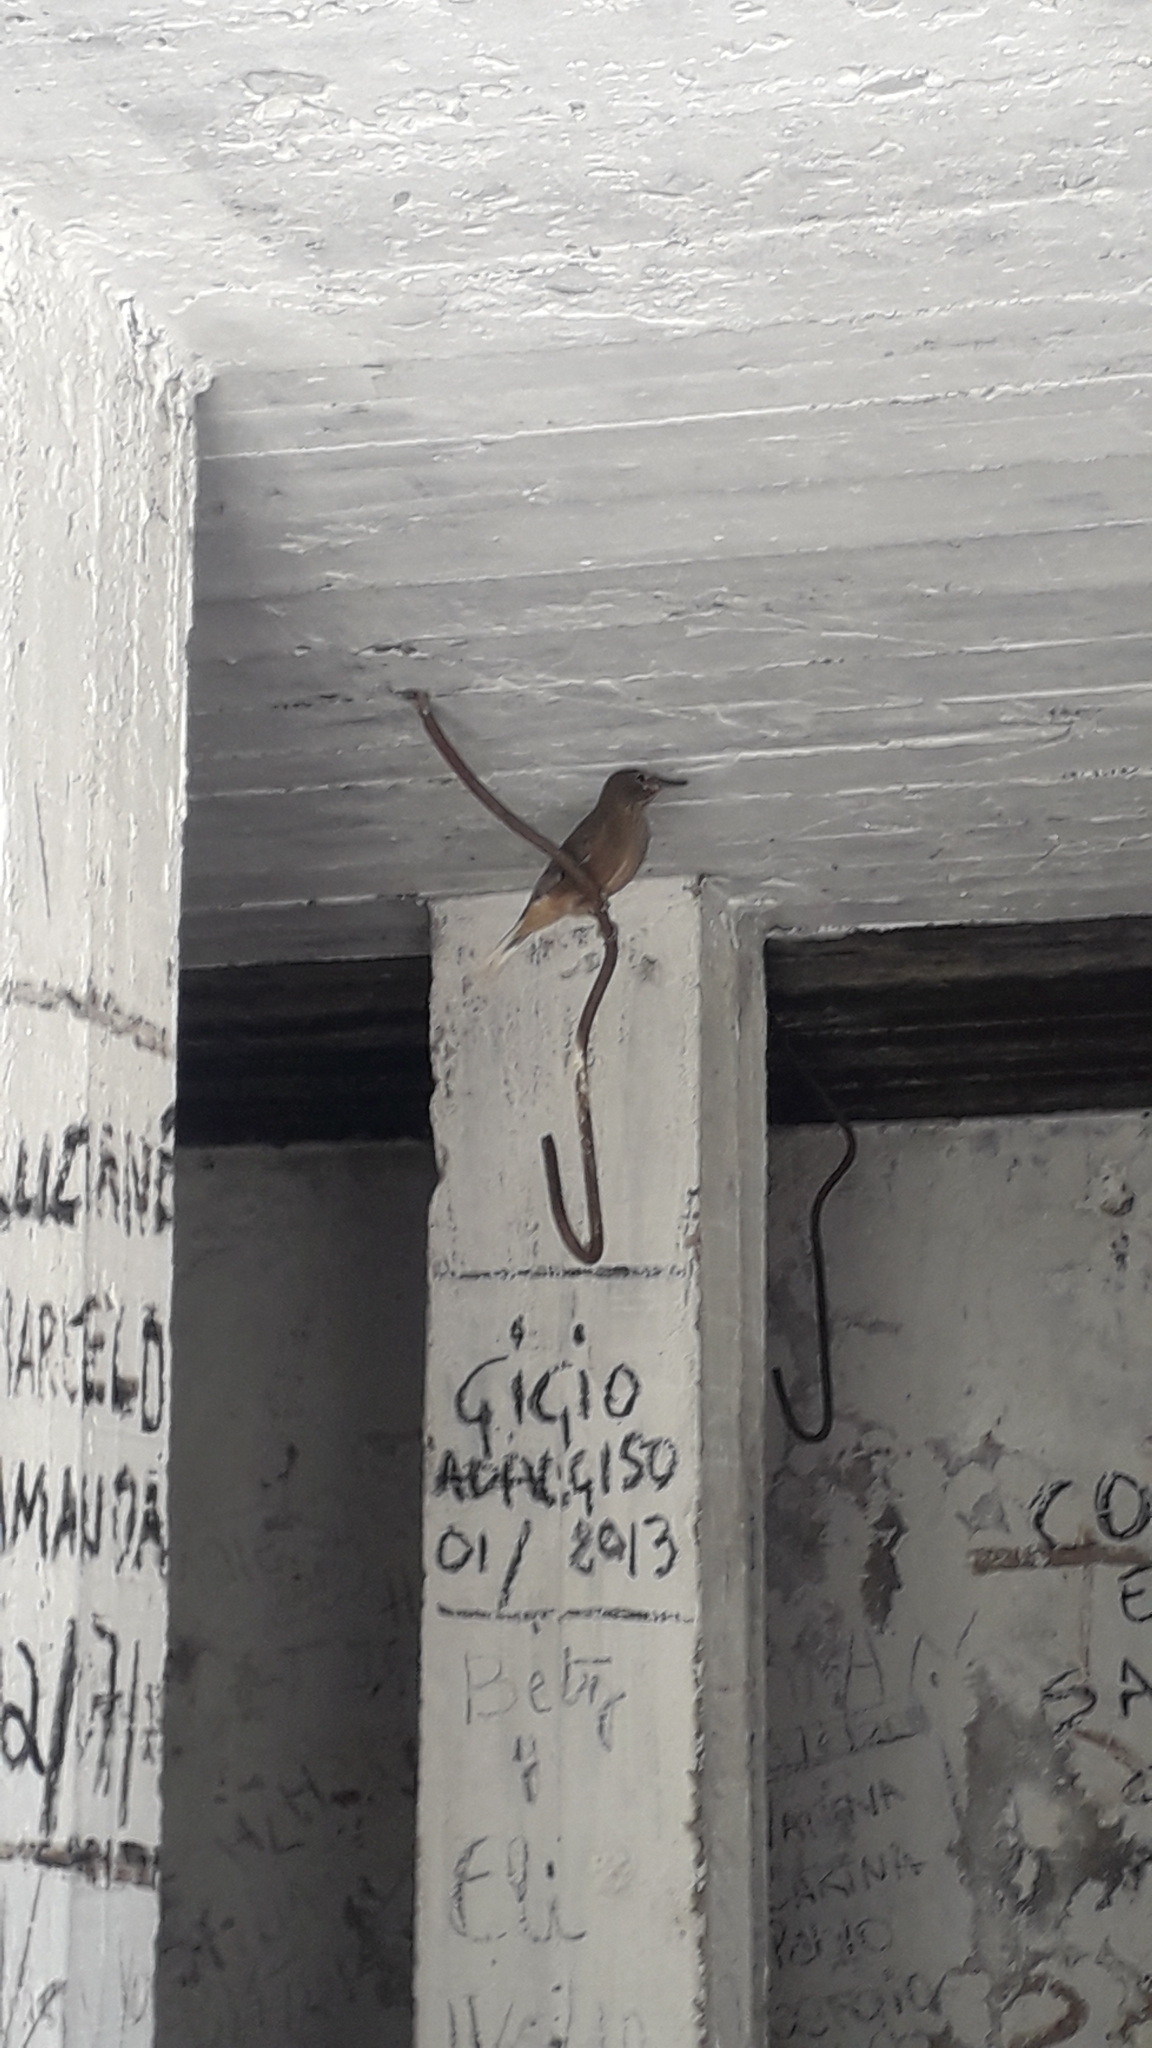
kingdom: Animalia
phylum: Chordata
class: Aves
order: Passeriformes
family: Tyrannidae
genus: Agriornis
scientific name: Agriornis montanus
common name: Black-billed shrike-tyrant
